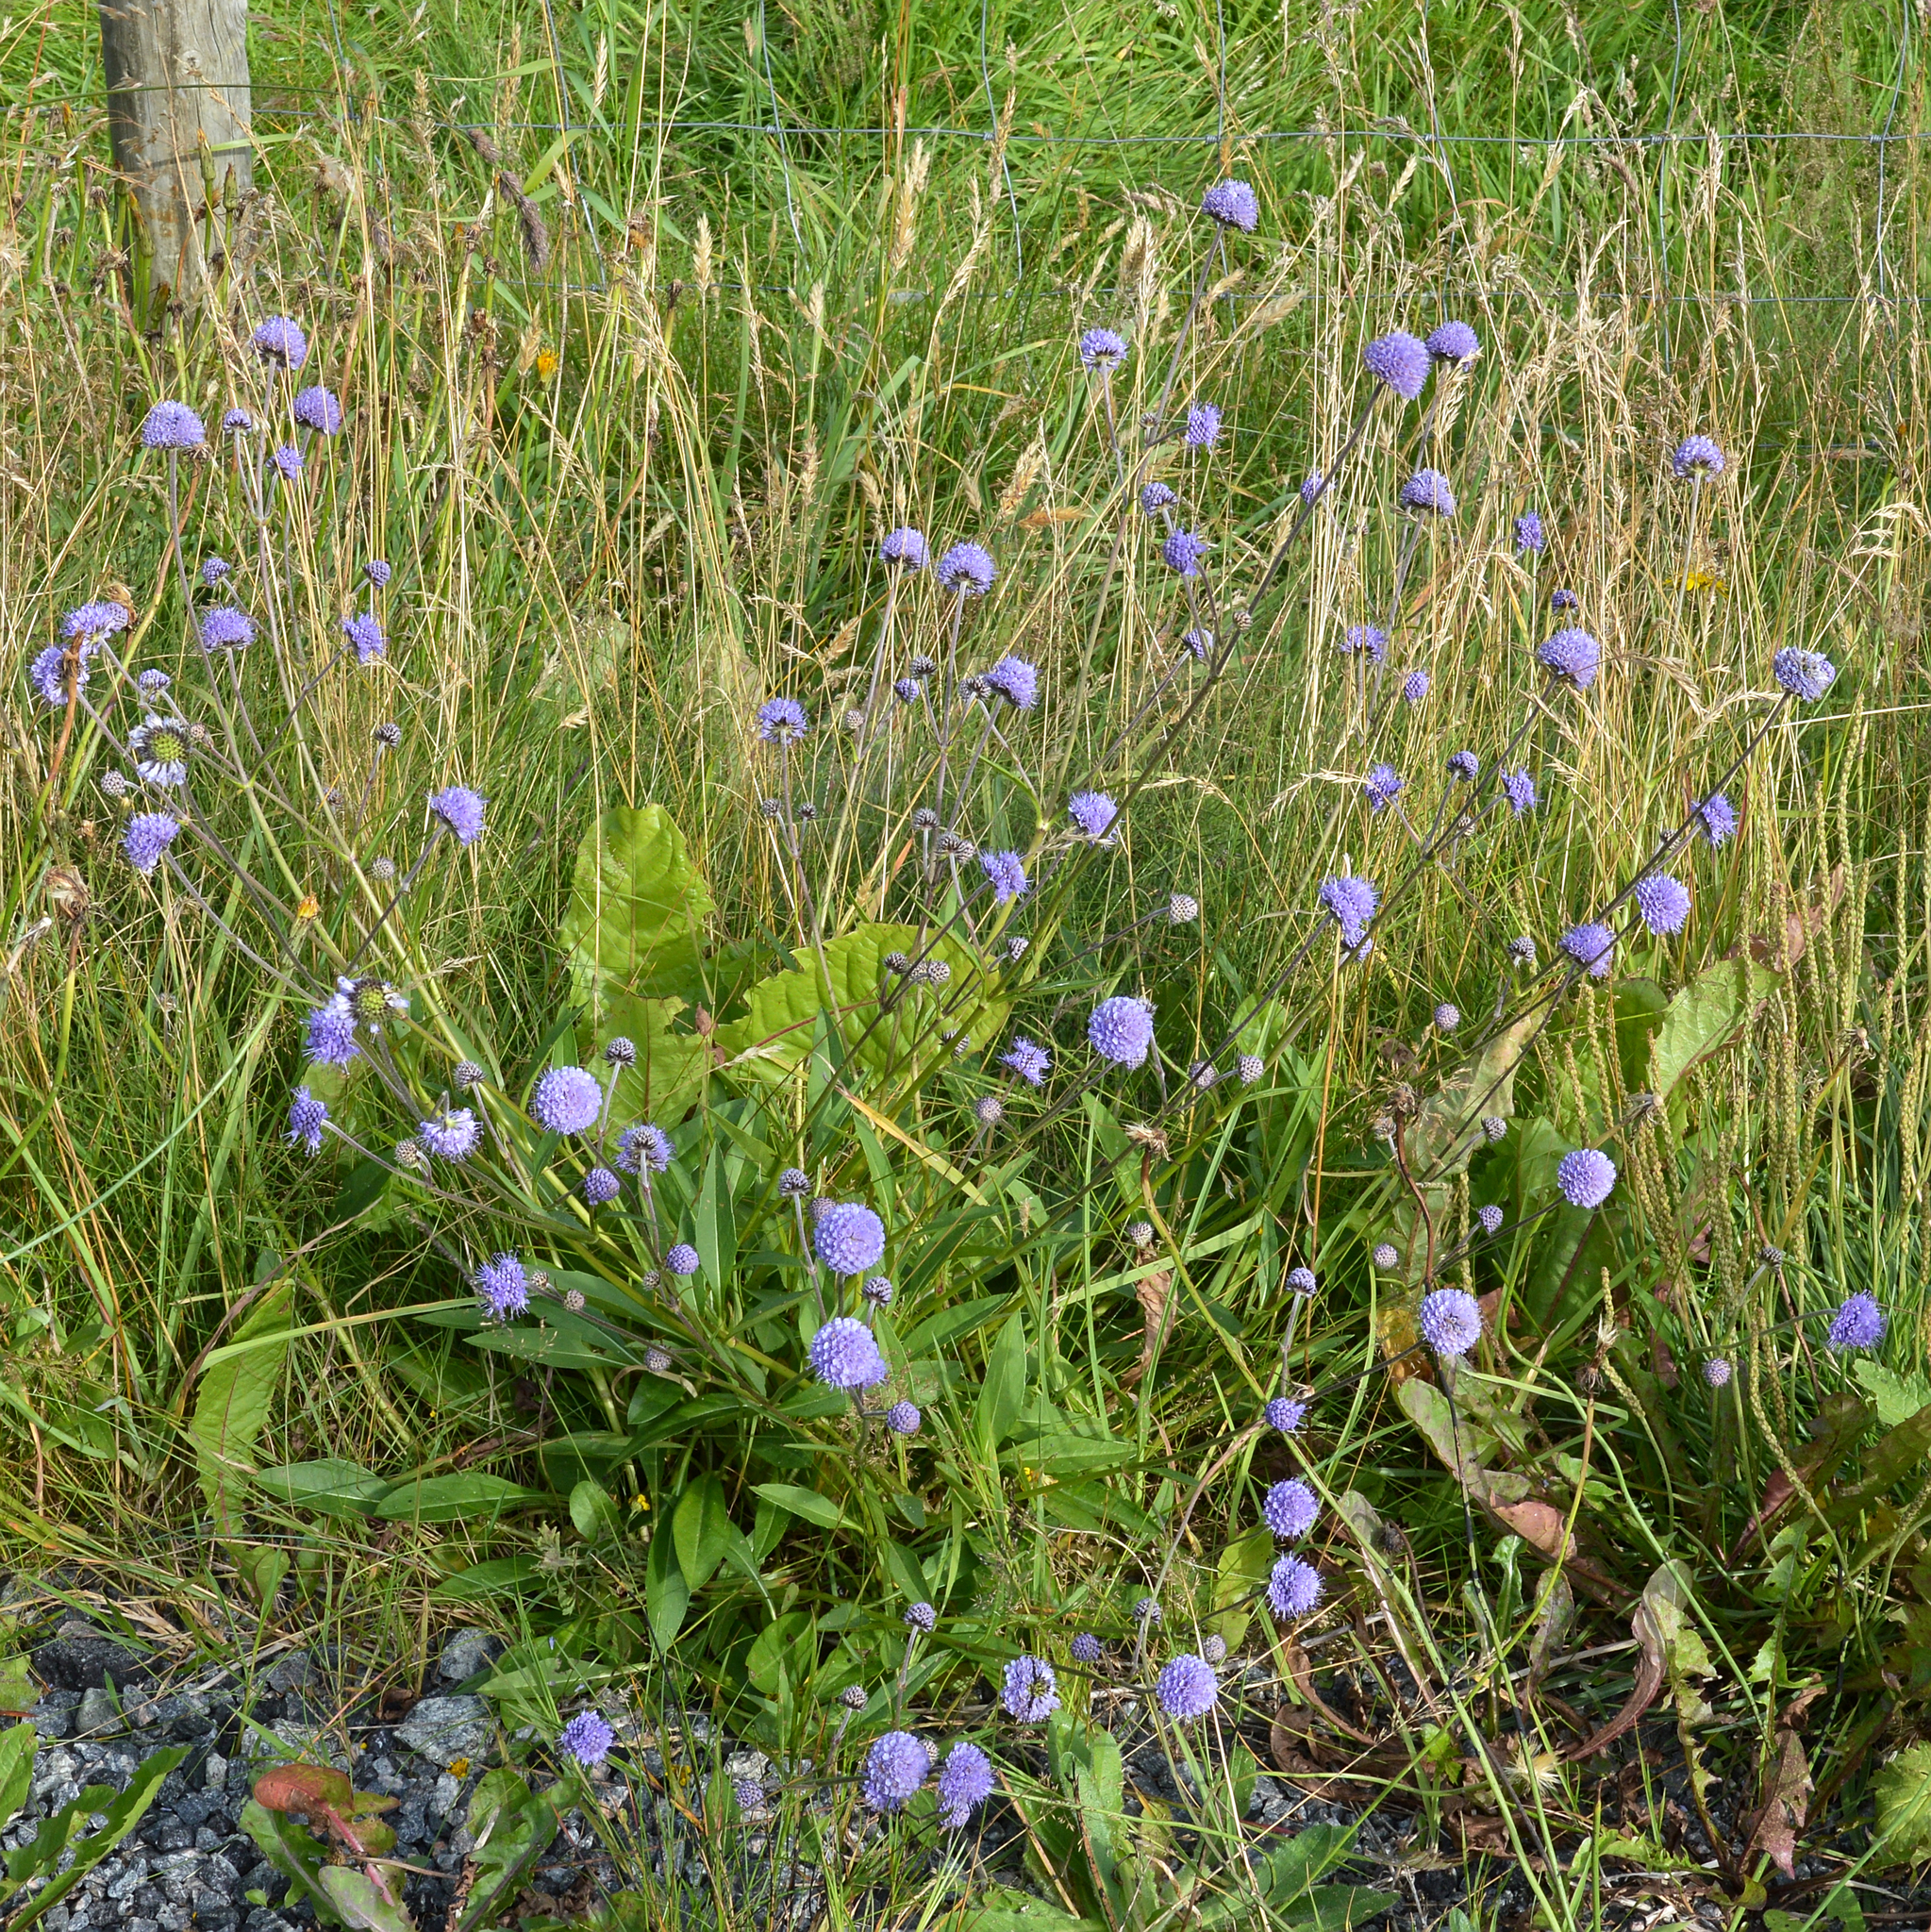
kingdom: Plantae
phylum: Tracheophyta
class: Magnoliopsida
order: Dipsacales
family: Caprifoliaceae
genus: Succisa
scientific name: Succisa pratensis
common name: Devil's-bit
